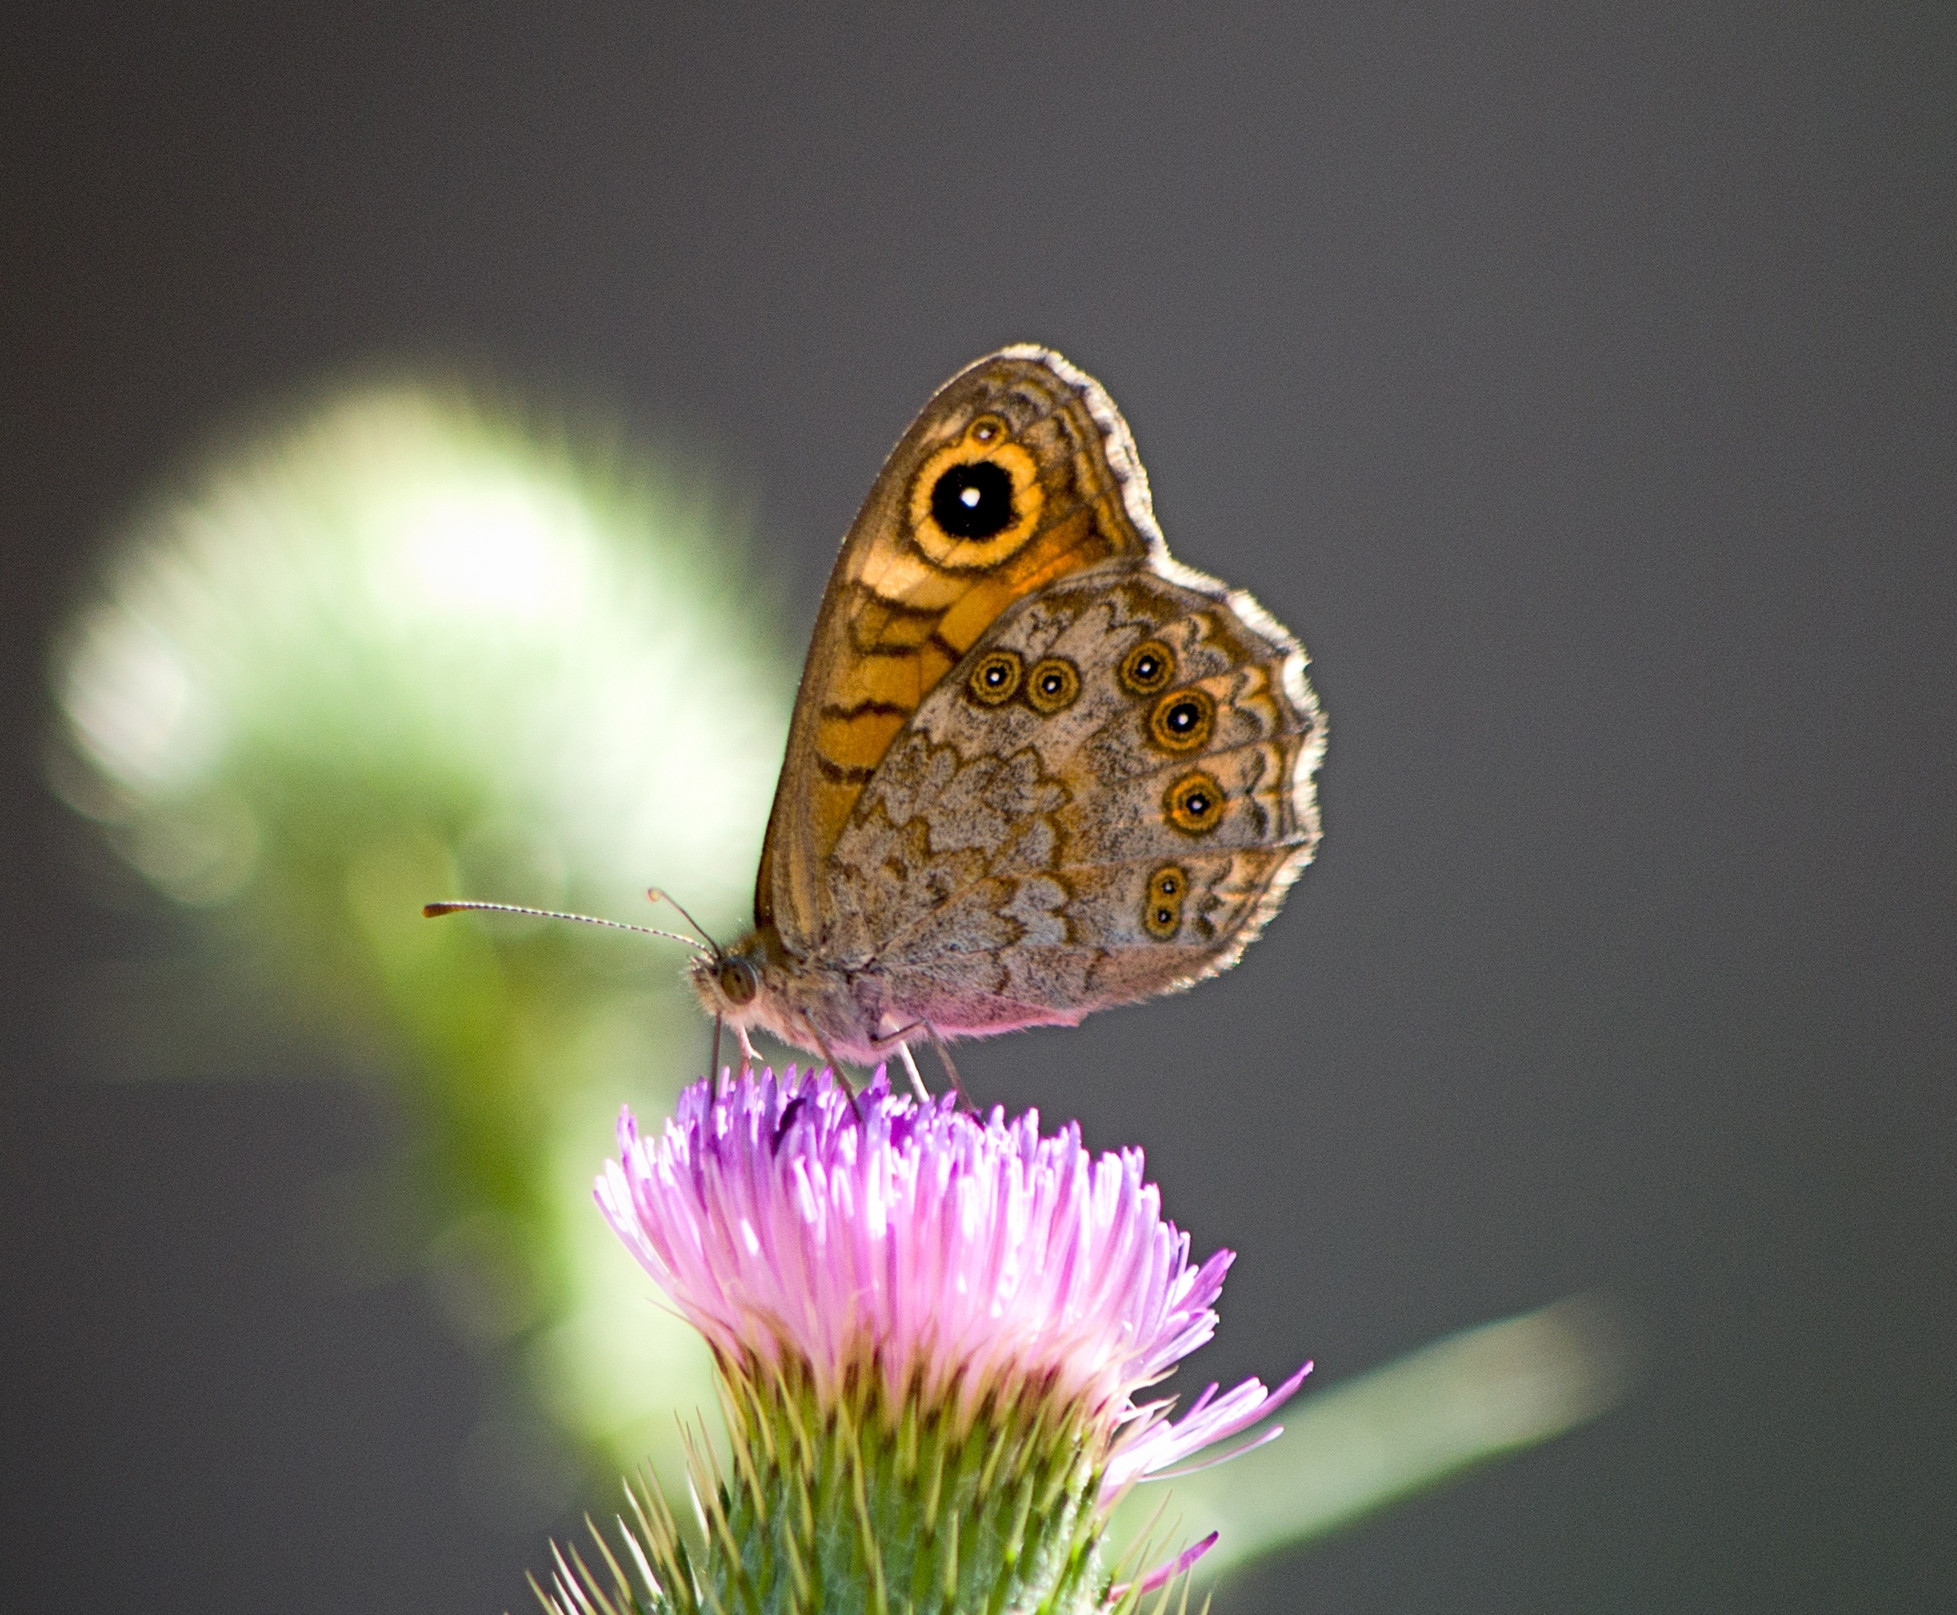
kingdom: Animalia
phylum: Arthropoda
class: Insecta
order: Lepidoptera
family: Nymphalidae
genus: Pararge
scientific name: Pararge Lasiommata megera
